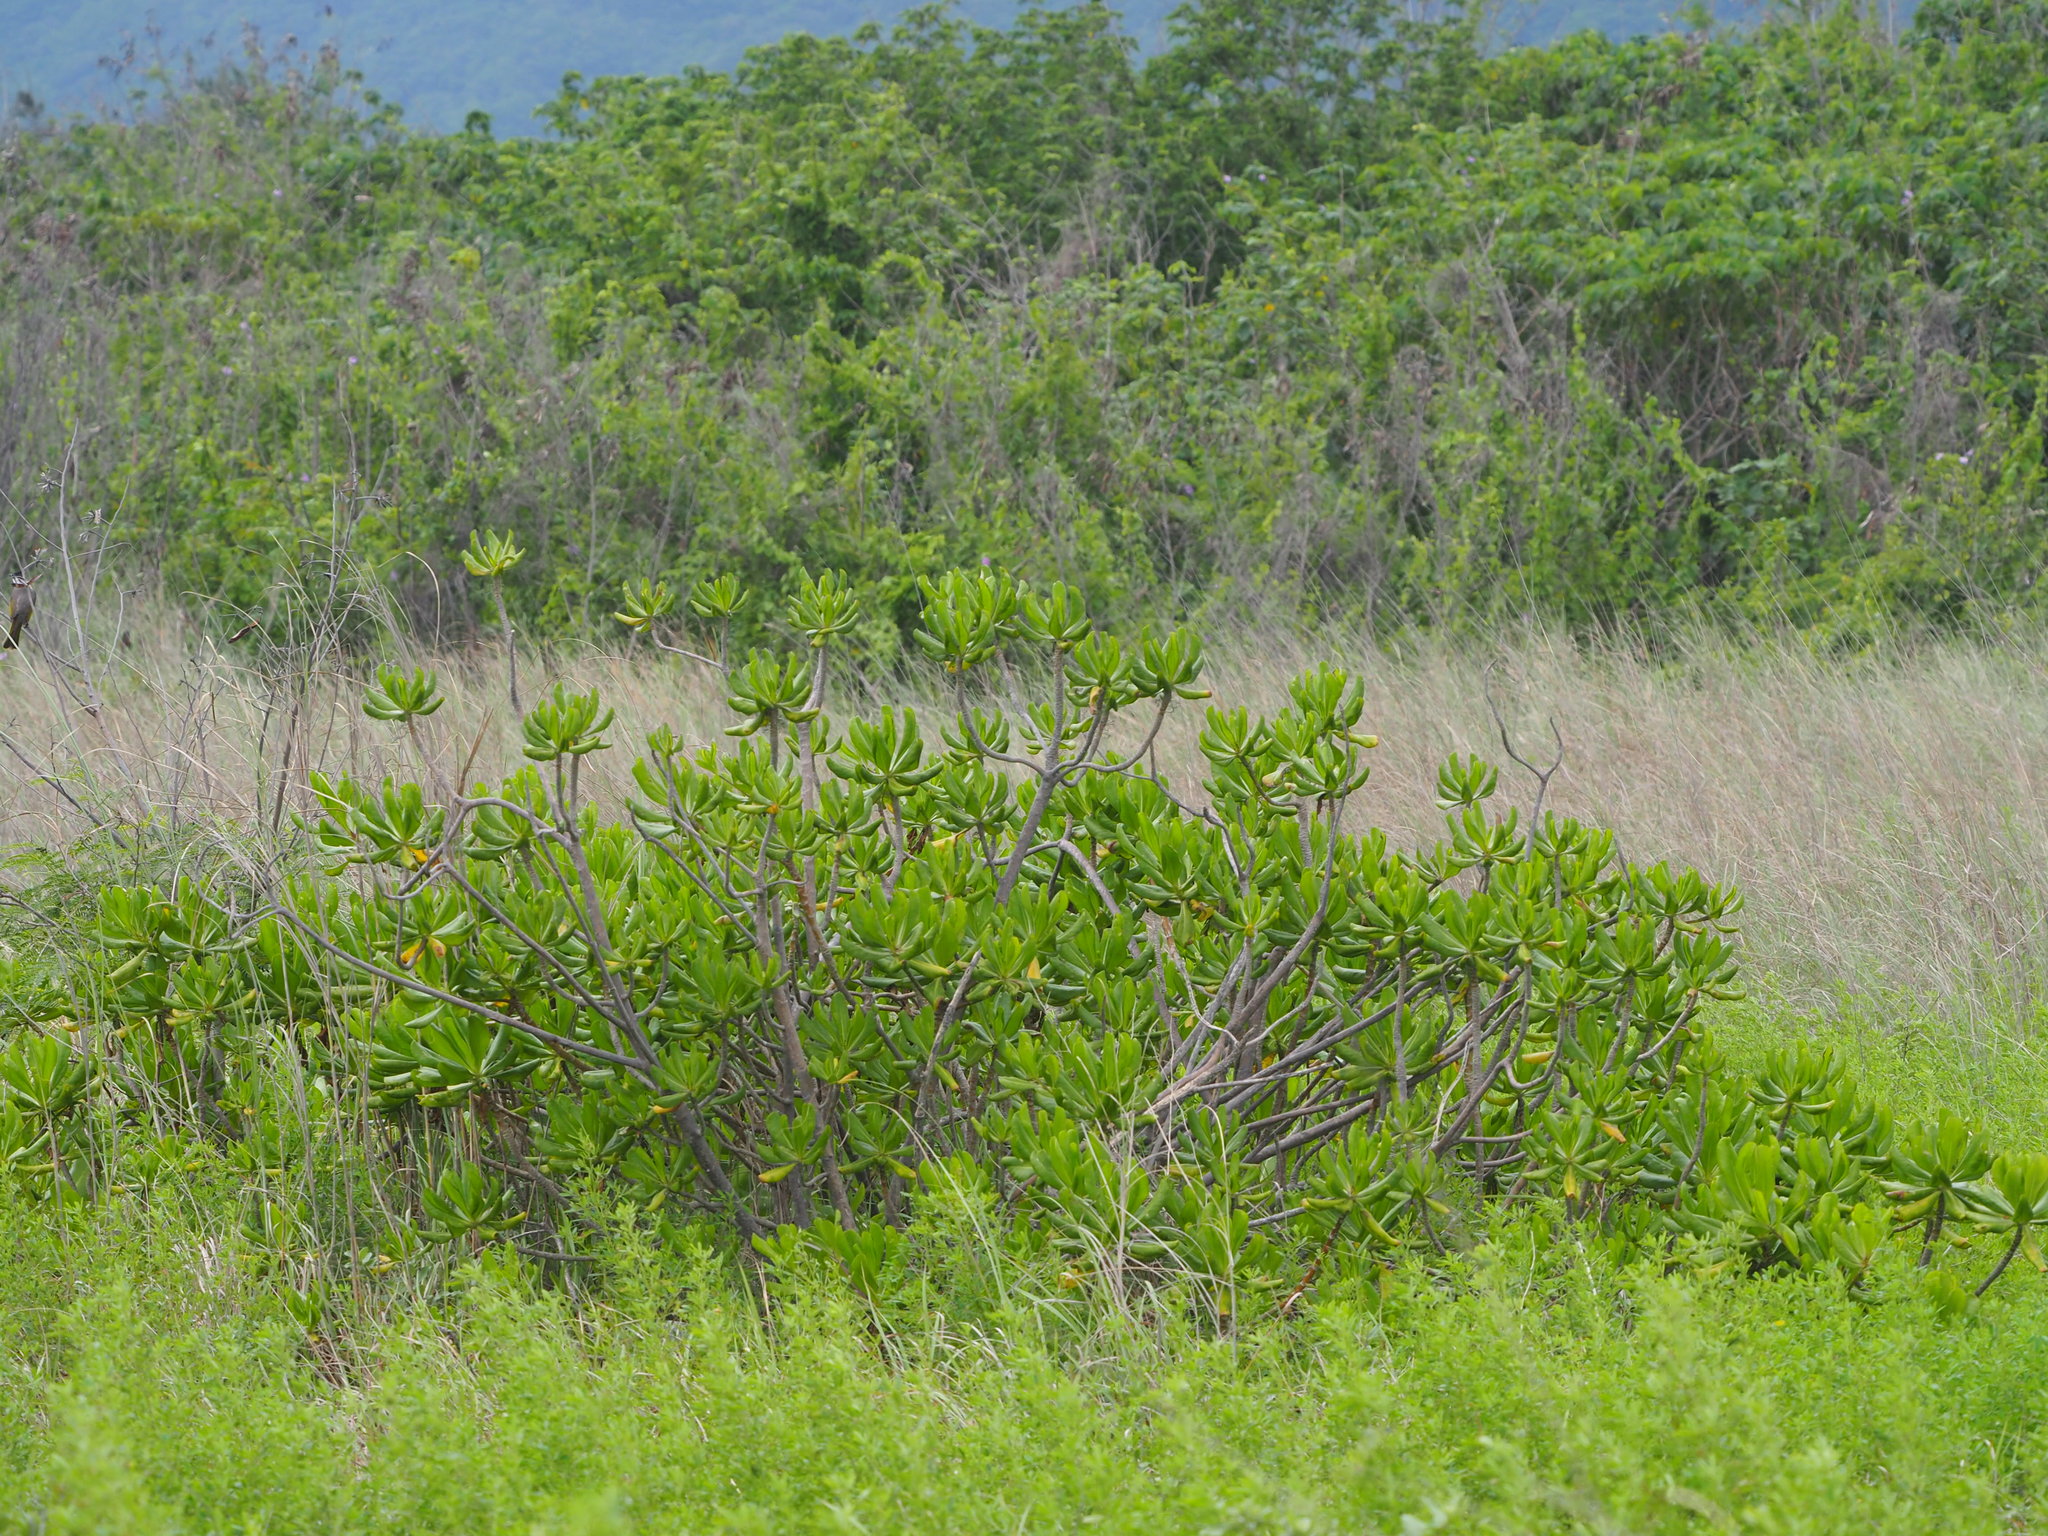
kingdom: Plantae
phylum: Tracheophyta
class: Magnoliopsida
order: Asterales
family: Goodeniaceae
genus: Scaevola
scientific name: Scaevola taccada
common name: Sea lettucetree
